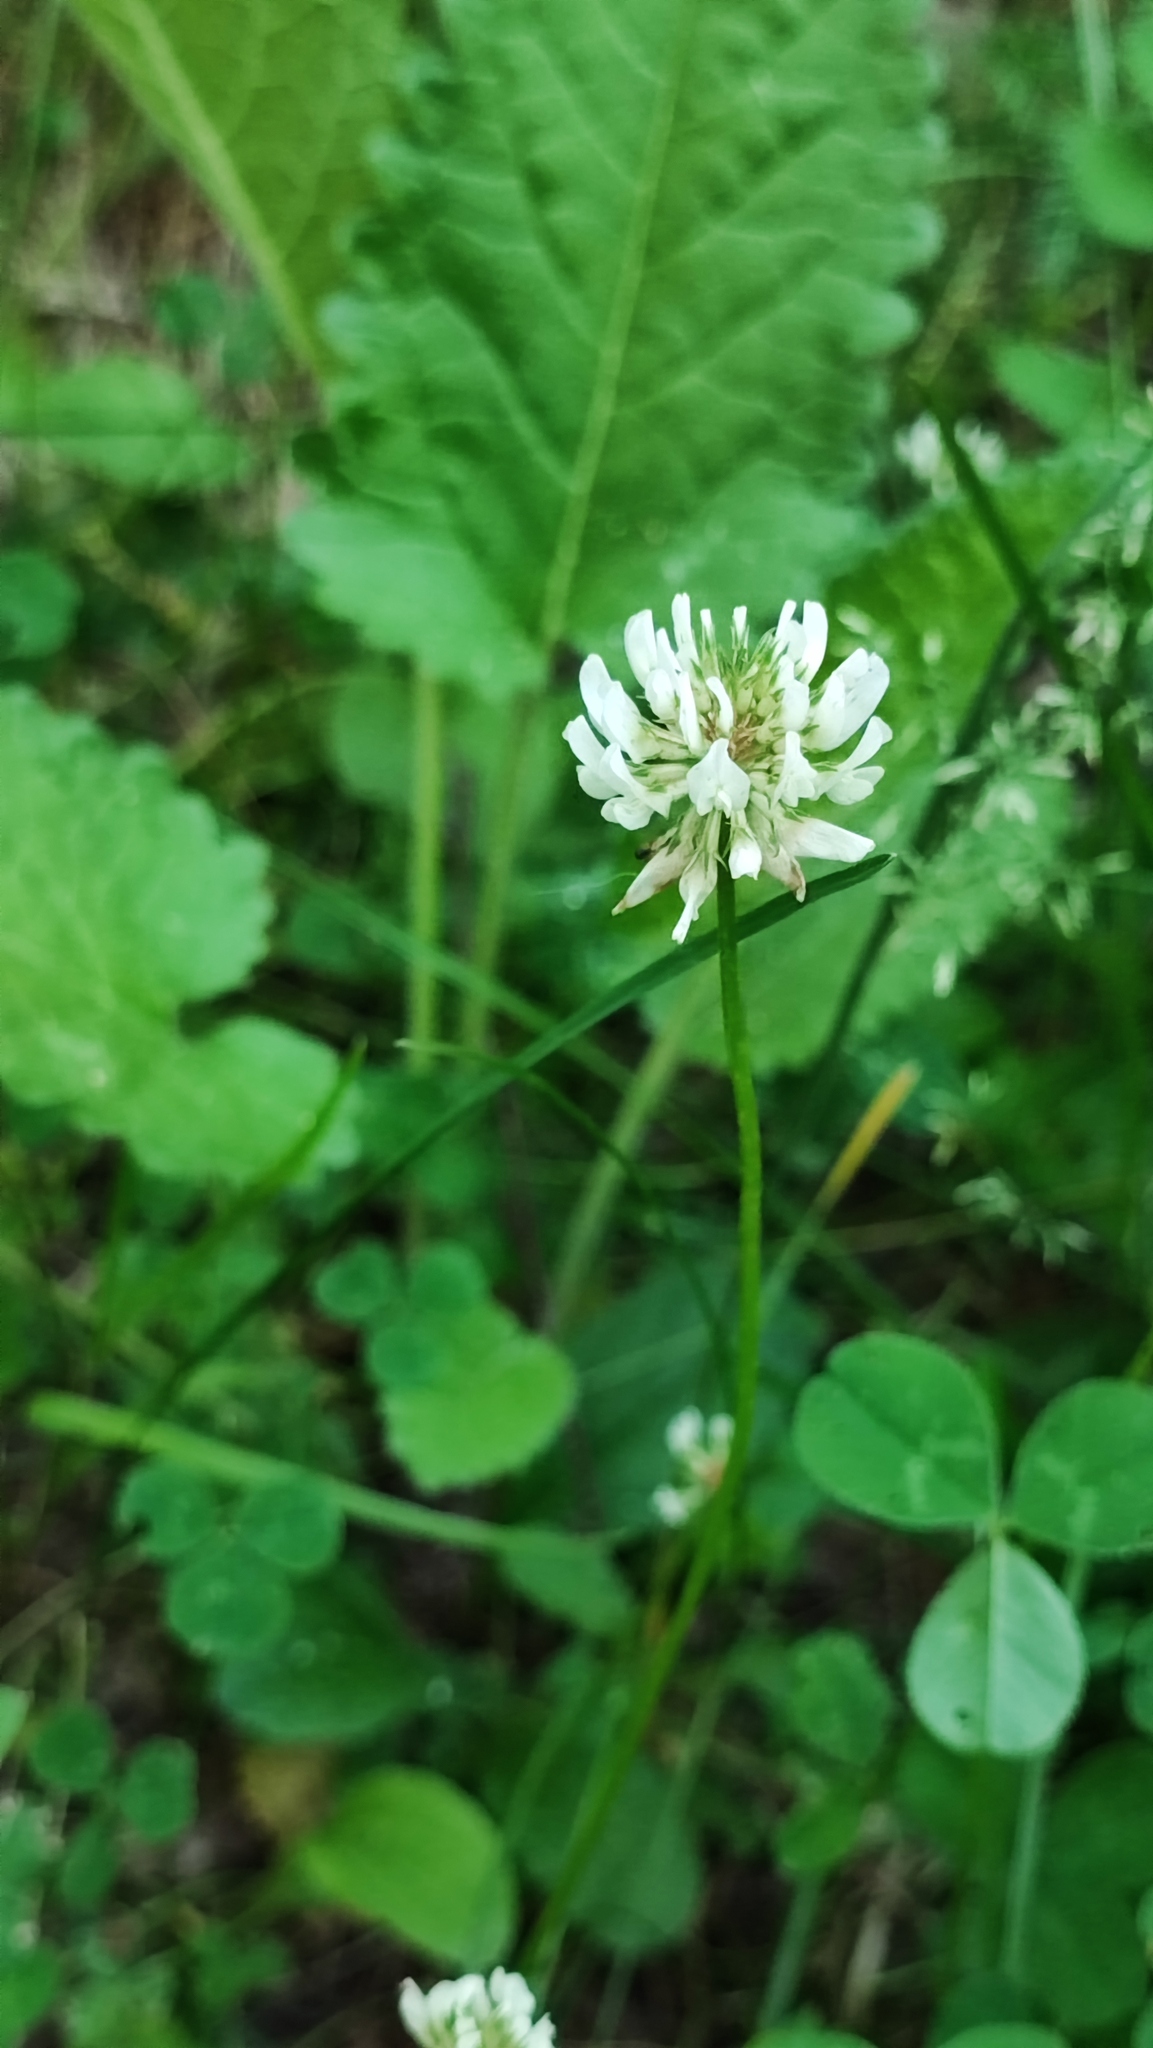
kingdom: Plantae
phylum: Tracheophyta
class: Magnoliopsida
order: Fabales
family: Fabaceae
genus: Trifolium
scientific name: Trifolium repens
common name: White clover
